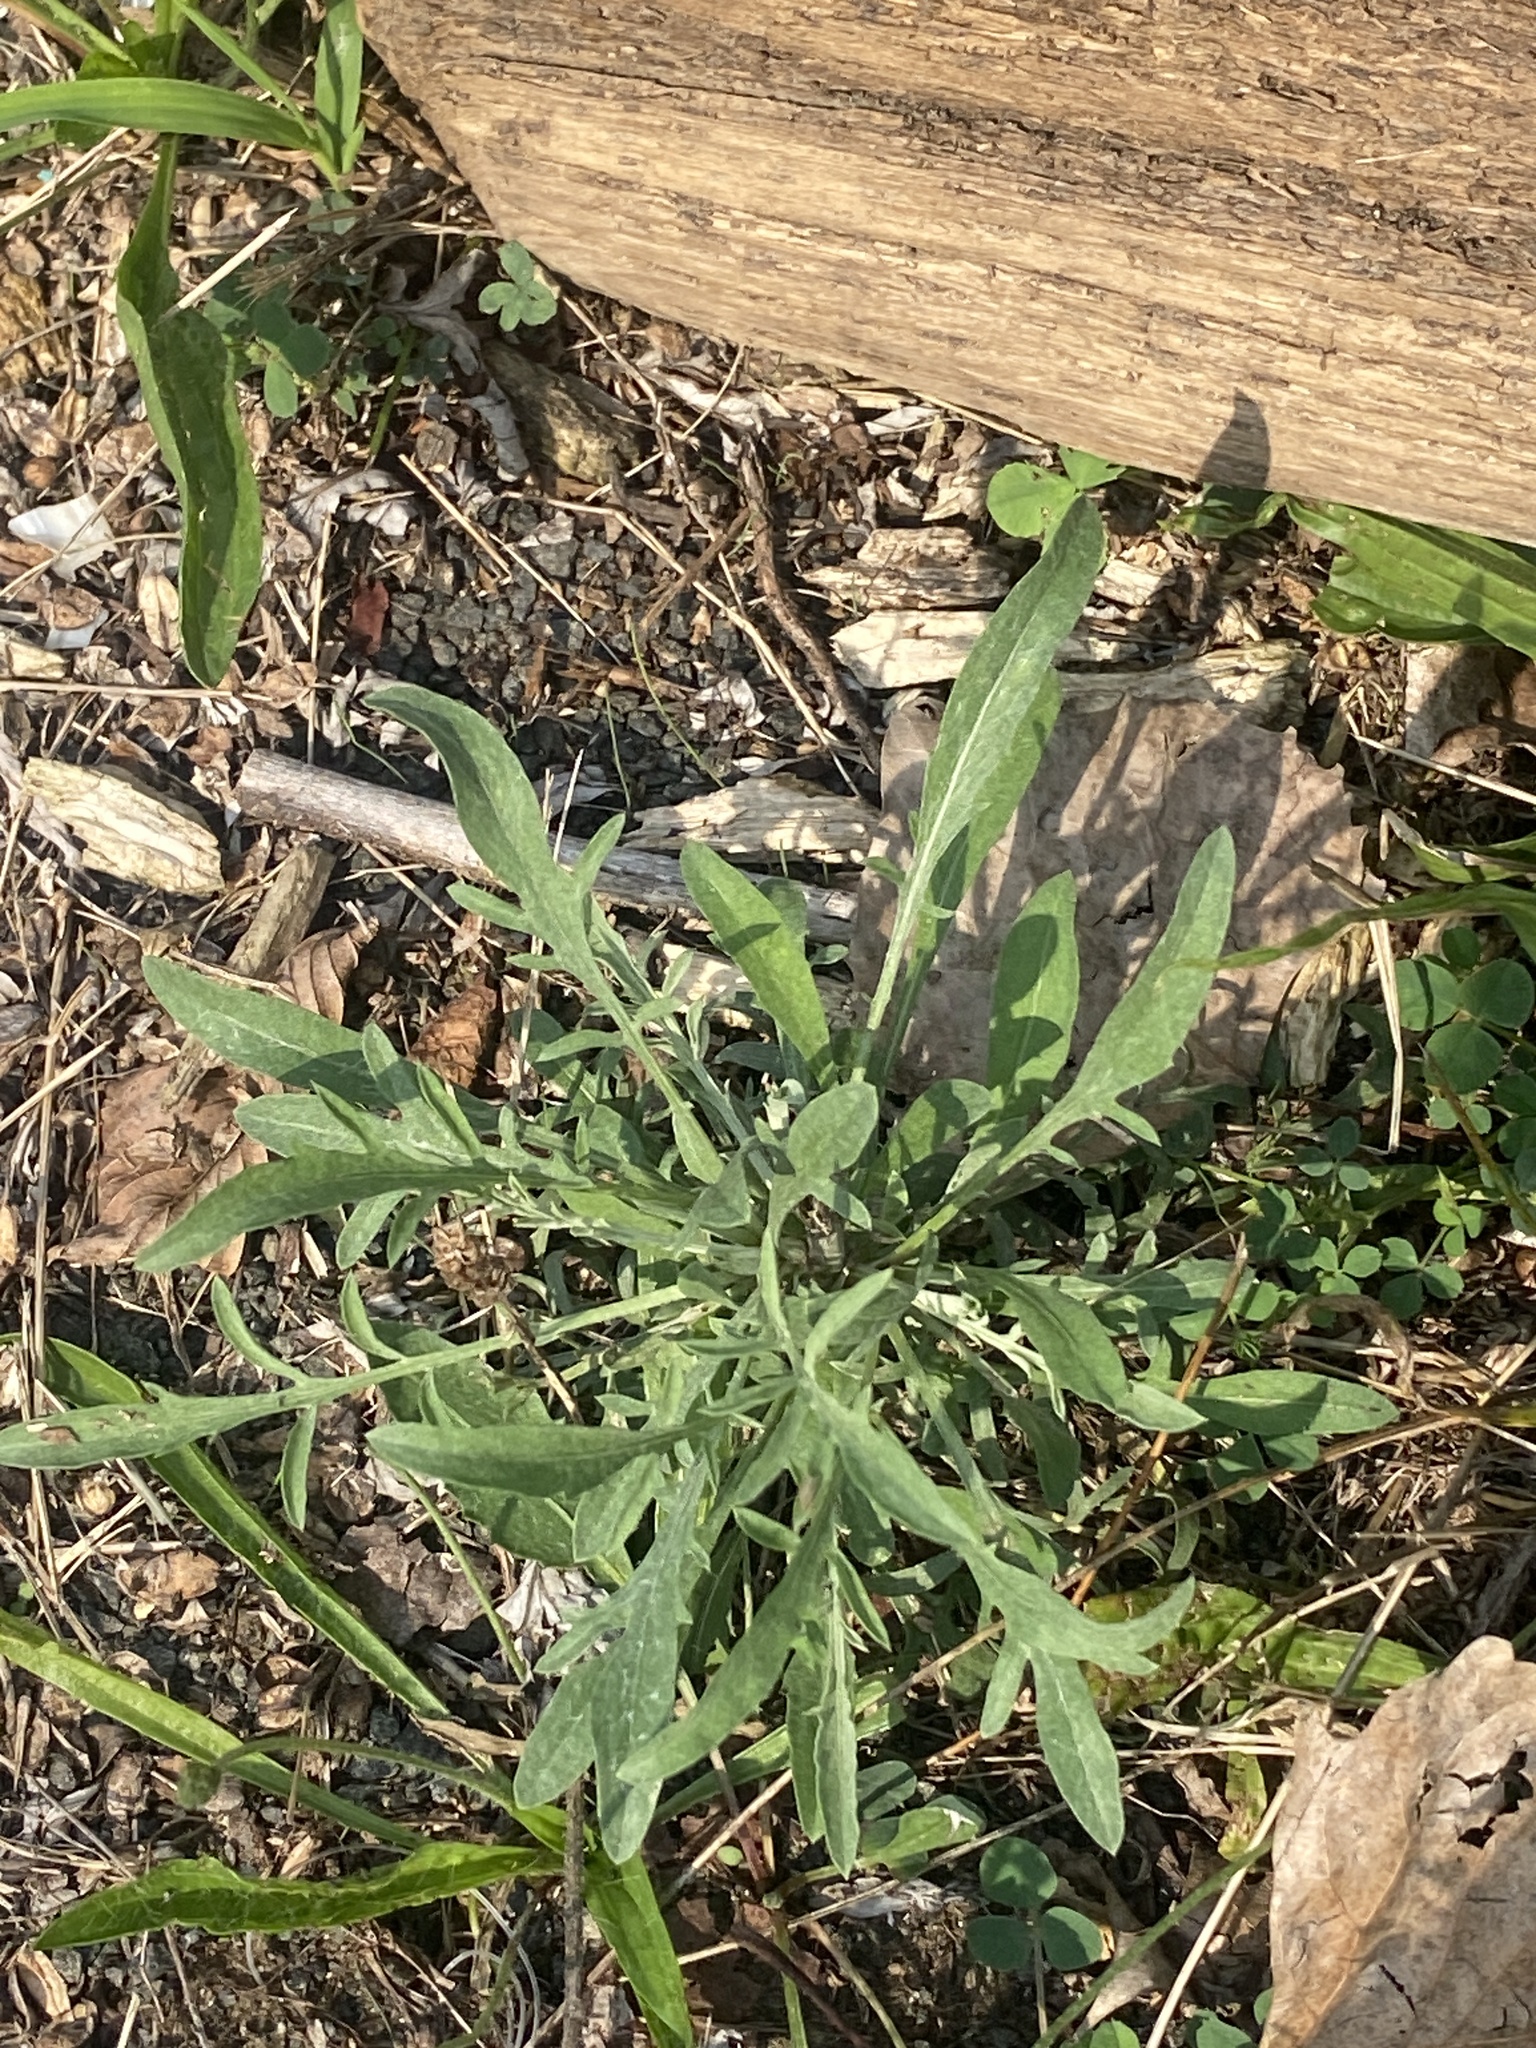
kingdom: Plantae
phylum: Tracheophyta
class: Magnoliopsida
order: Asterales
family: Asteraceae
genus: Centaurea
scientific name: Centaurea stoebe
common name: Spotted knapweed
